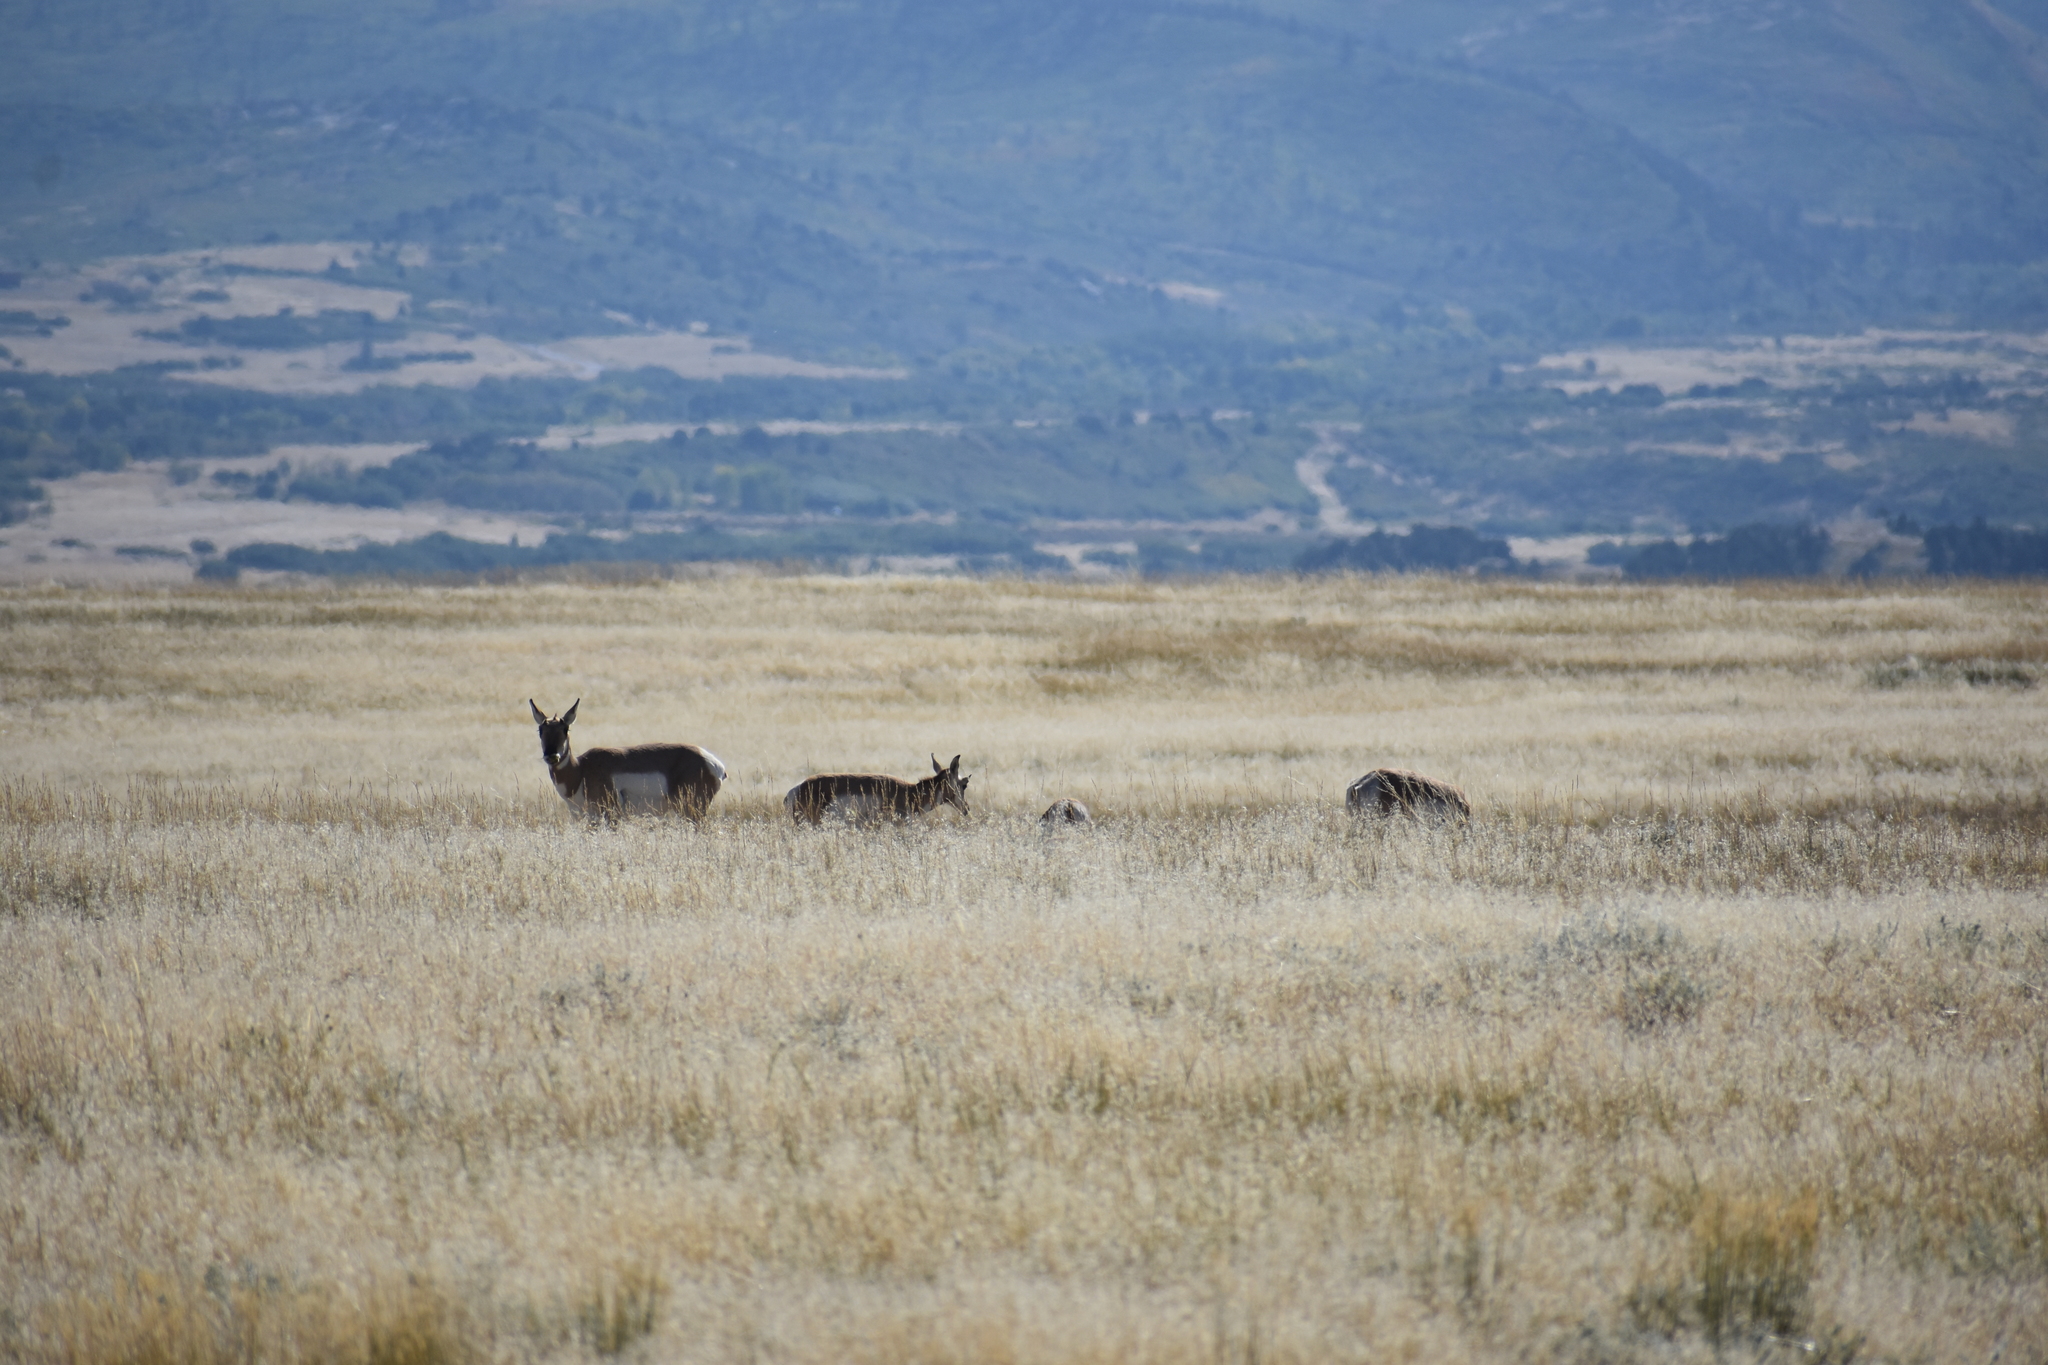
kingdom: Animalia
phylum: Chordata
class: Mammalia
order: Artiodactyla
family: Antilocapridae
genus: Antilocapra
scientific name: Antilocapra americana
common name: Pronghorn
